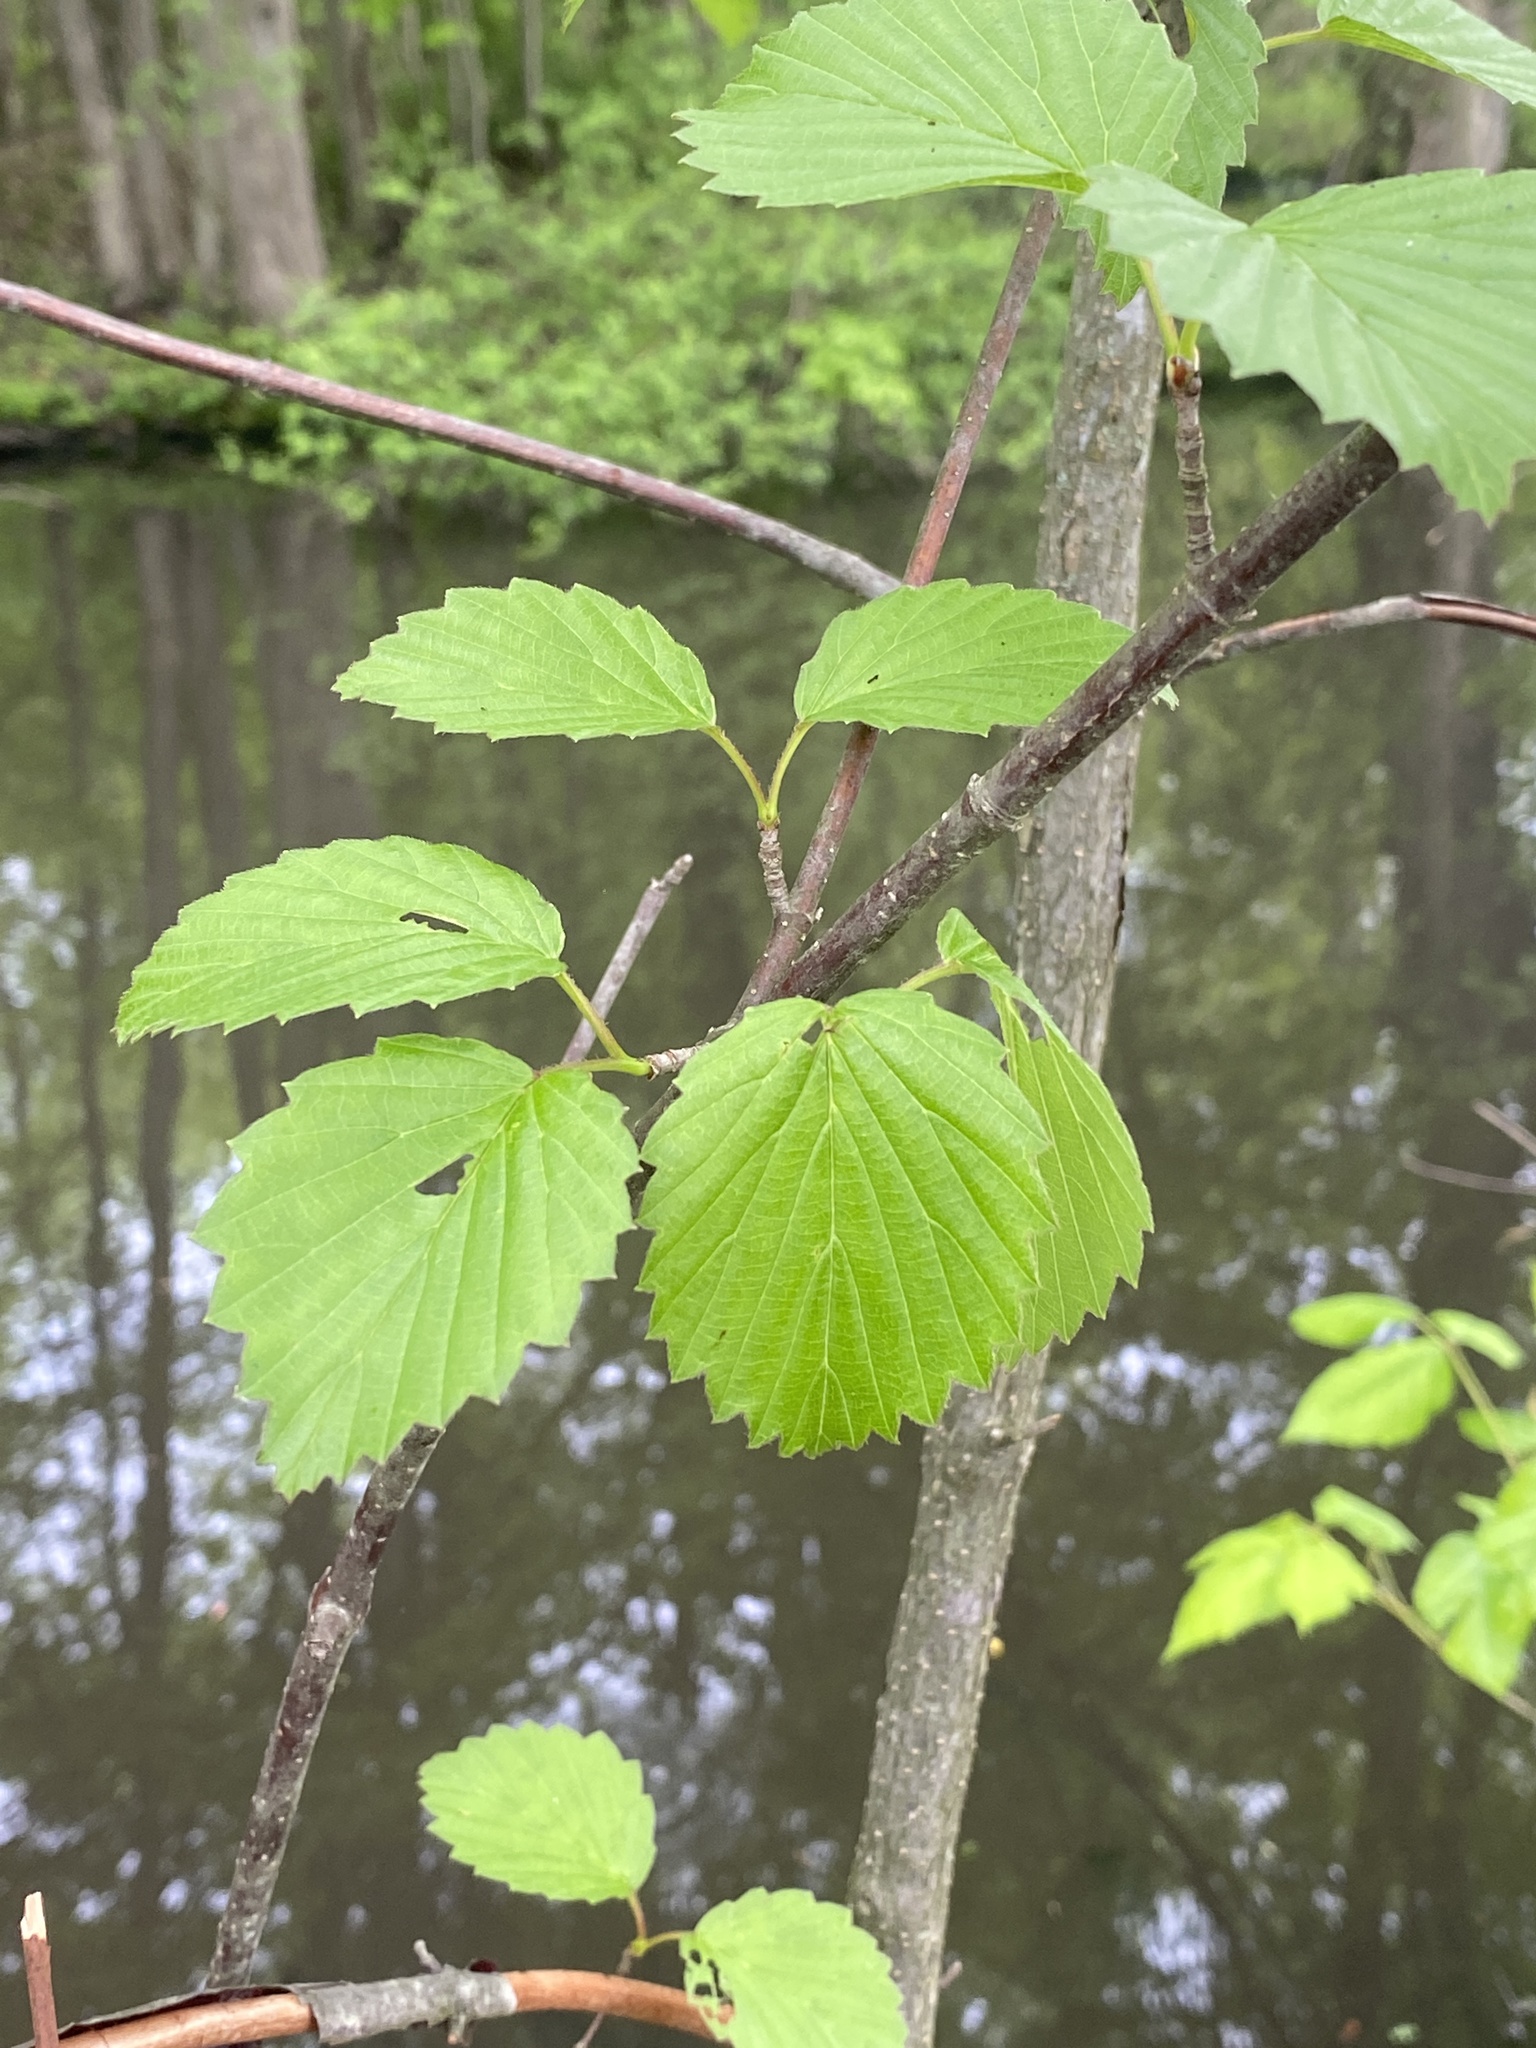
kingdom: Plantae
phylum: Tracheophyta
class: Magnoliopsida
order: Dipsacales
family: Viburnaceae
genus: Viburnum
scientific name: Viburnum dentatum
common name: Arrow-wood
